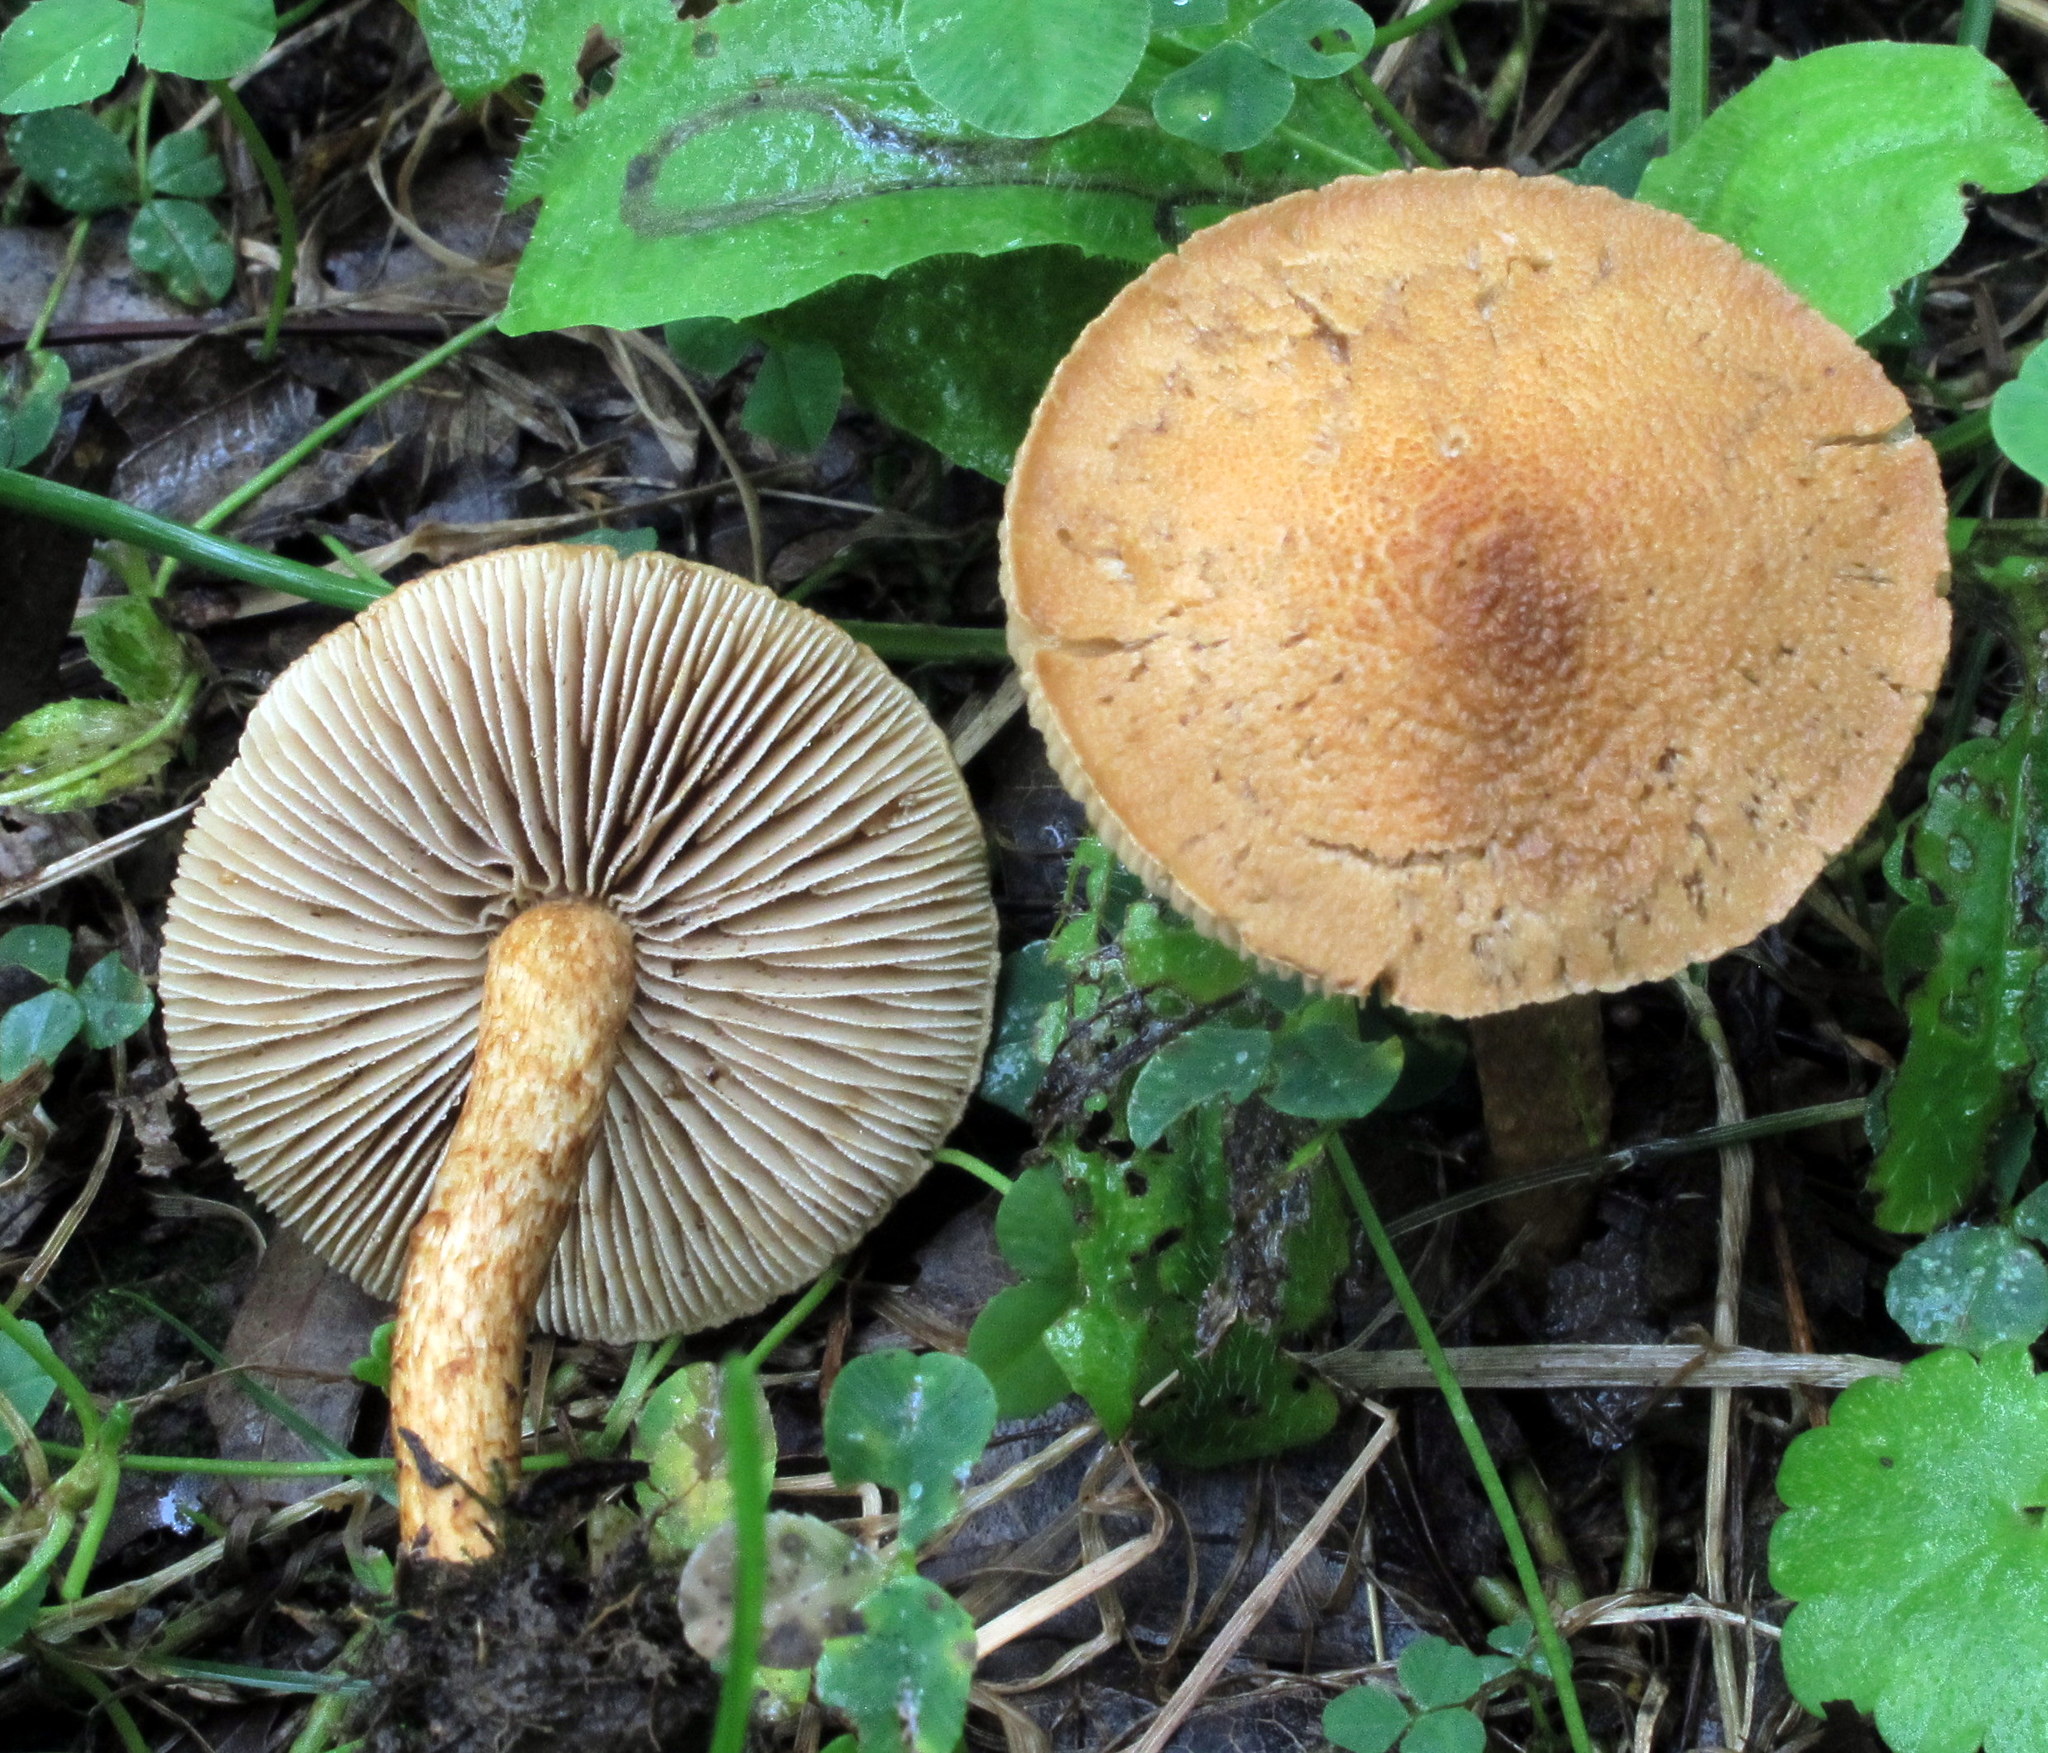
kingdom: Fungi
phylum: Basidiomycota
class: Agaricomycetes
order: Agaricales
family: Inocybaceae
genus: Mallocybe
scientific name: Mallocybe unicolor
